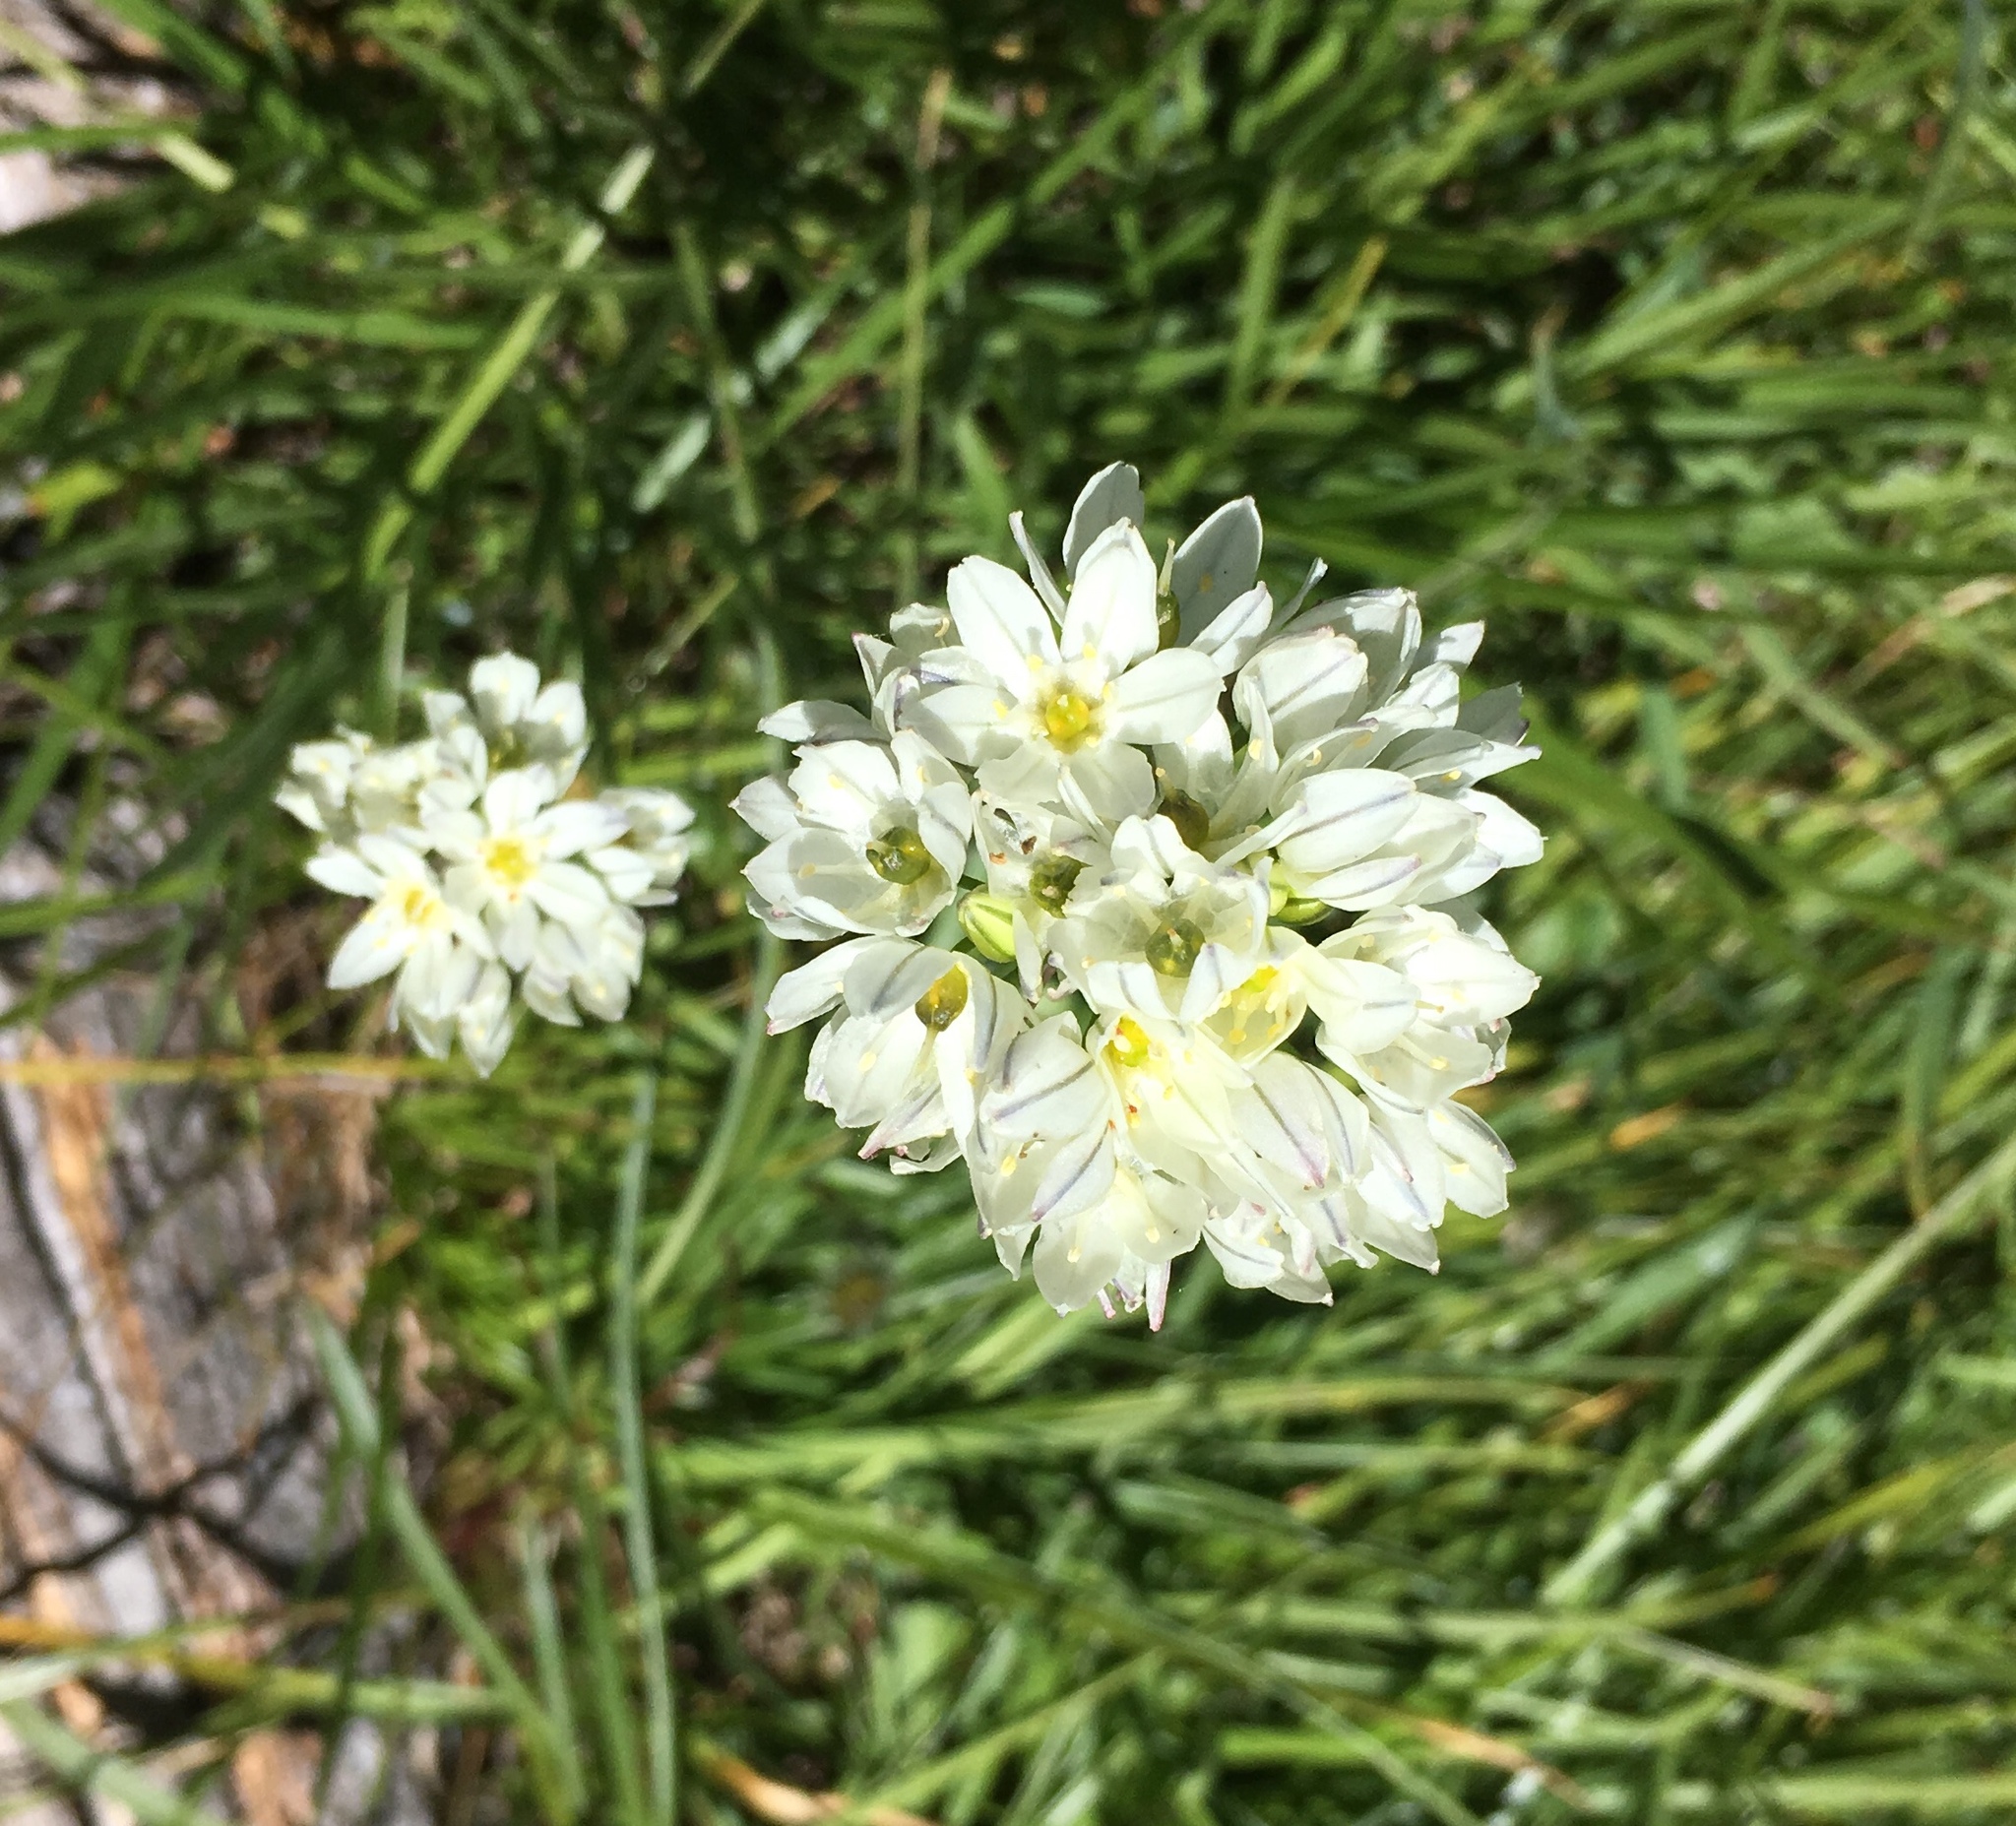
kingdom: Plantae
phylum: Tracheophyta
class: Liliopsida
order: Asparagales
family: Asparagaceae
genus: Triteleia
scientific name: Triteleia hyacinthina
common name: White brodiaea
